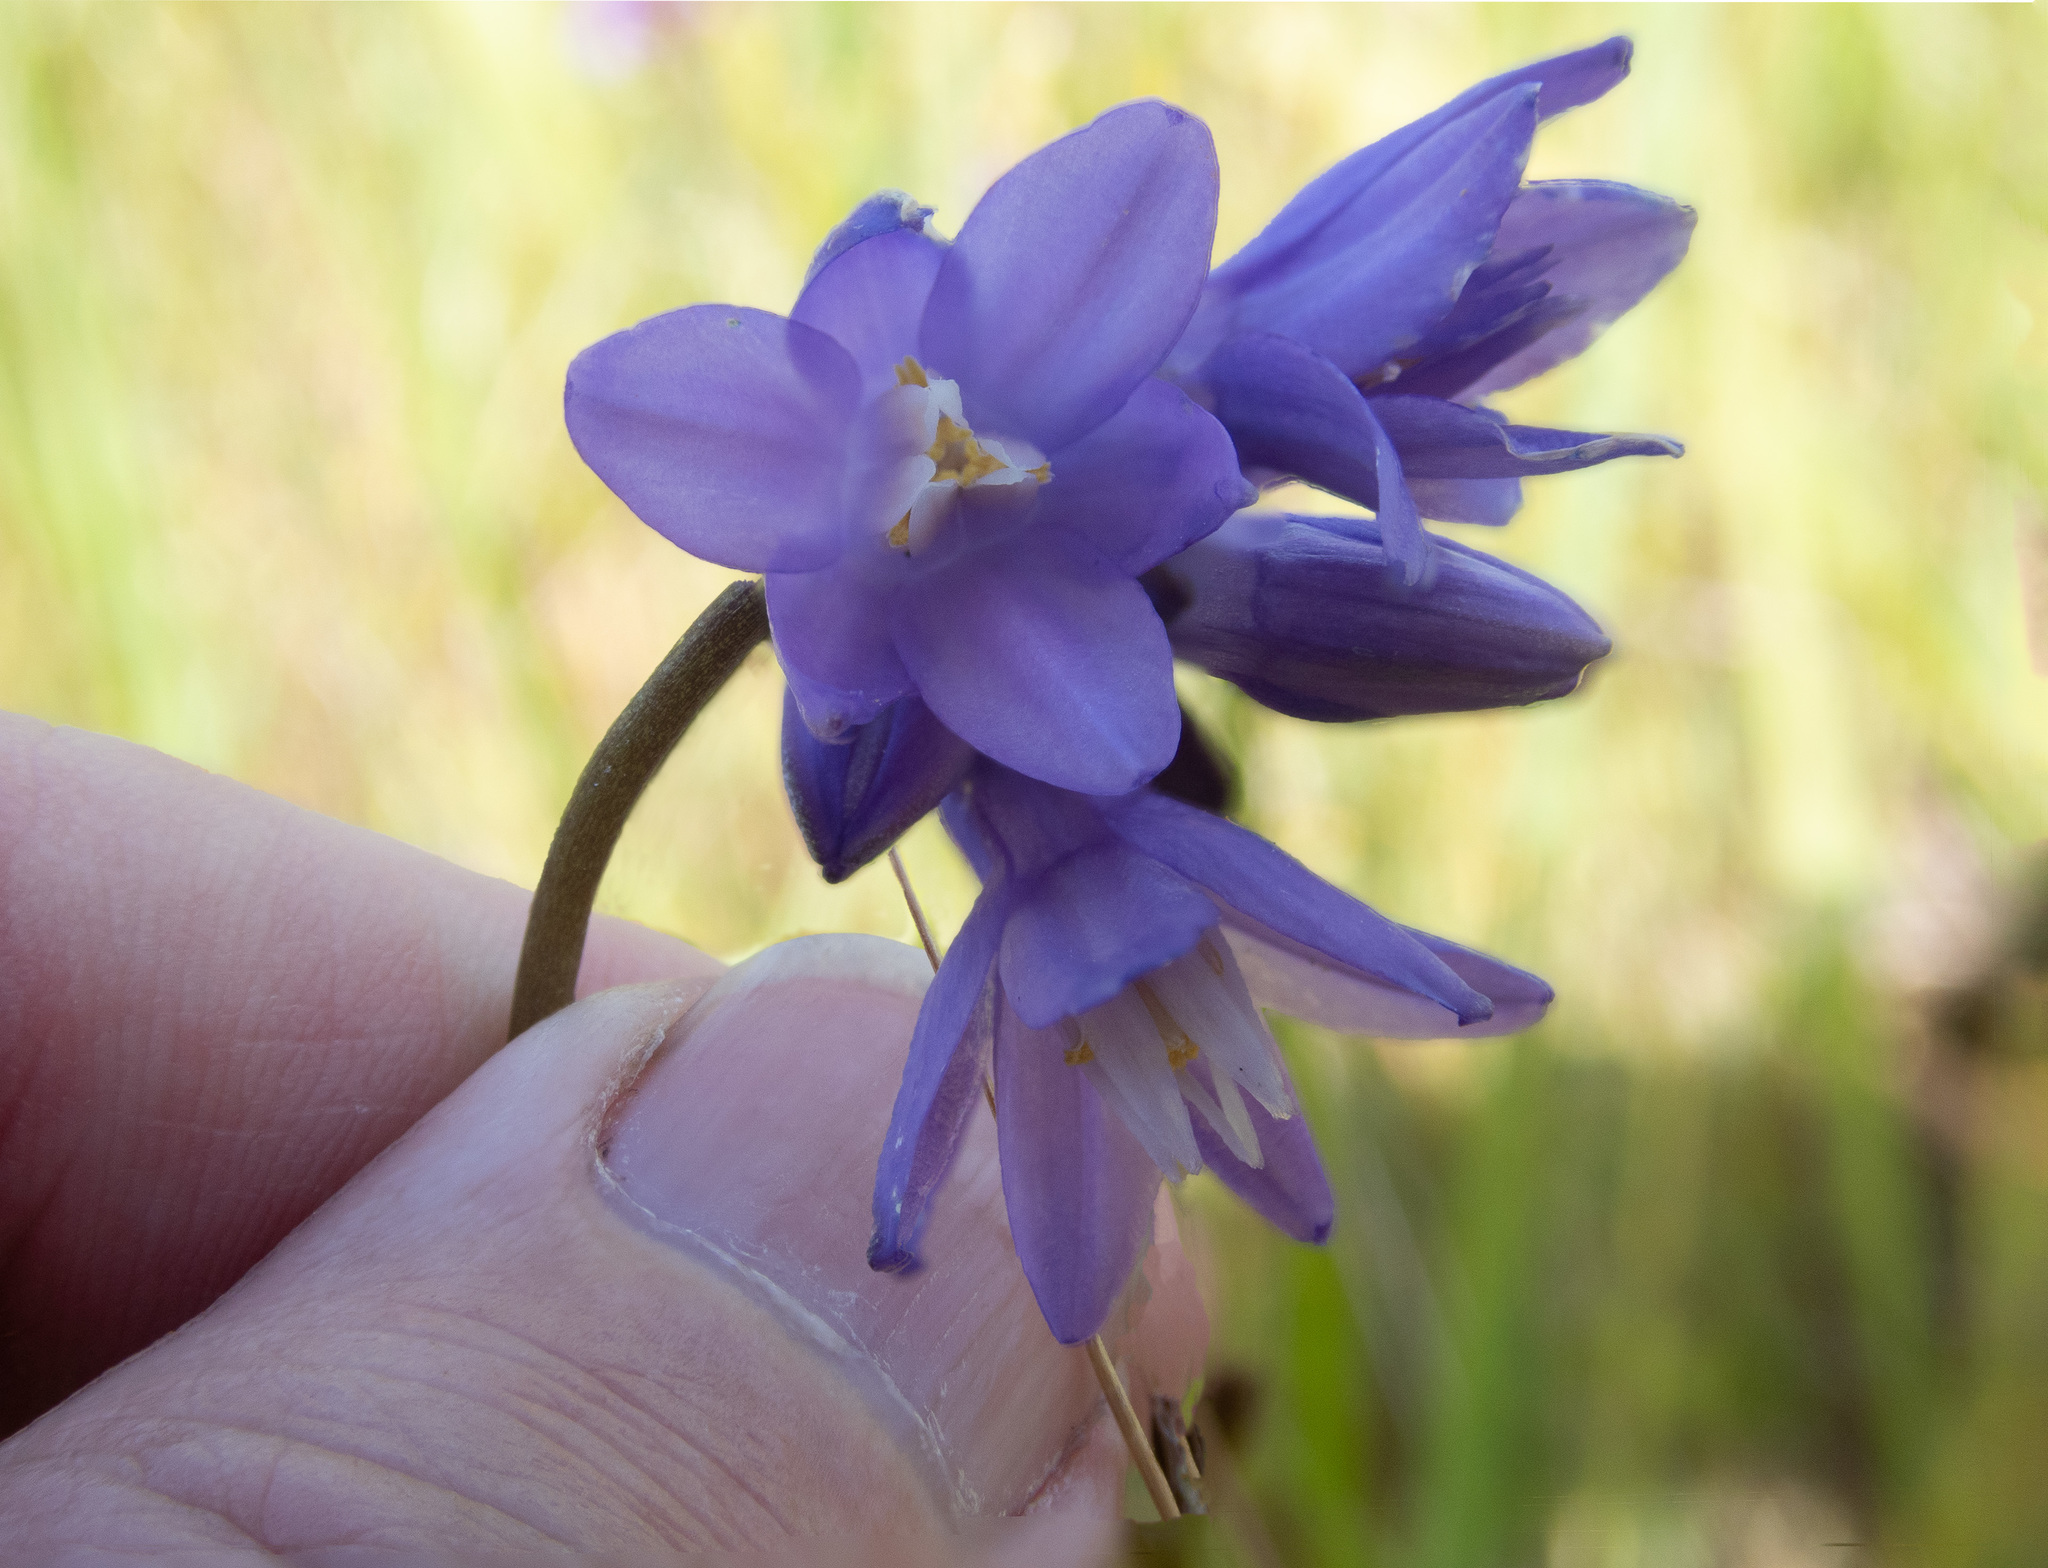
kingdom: Plantae
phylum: Tracheophyta
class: Liliopsida
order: Asparagales
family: Asparagaceae
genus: Dipterostemon
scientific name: Dipterostemon capitatus
